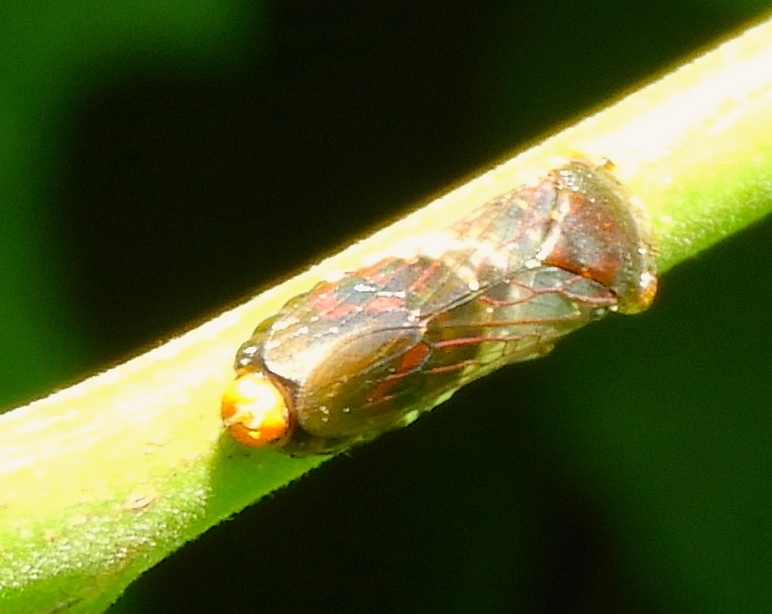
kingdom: Animalia
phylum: Arthropoda
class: Insecta
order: Hemiptera
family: Cicadellidae
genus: Homalodisca
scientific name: Homalodisca
